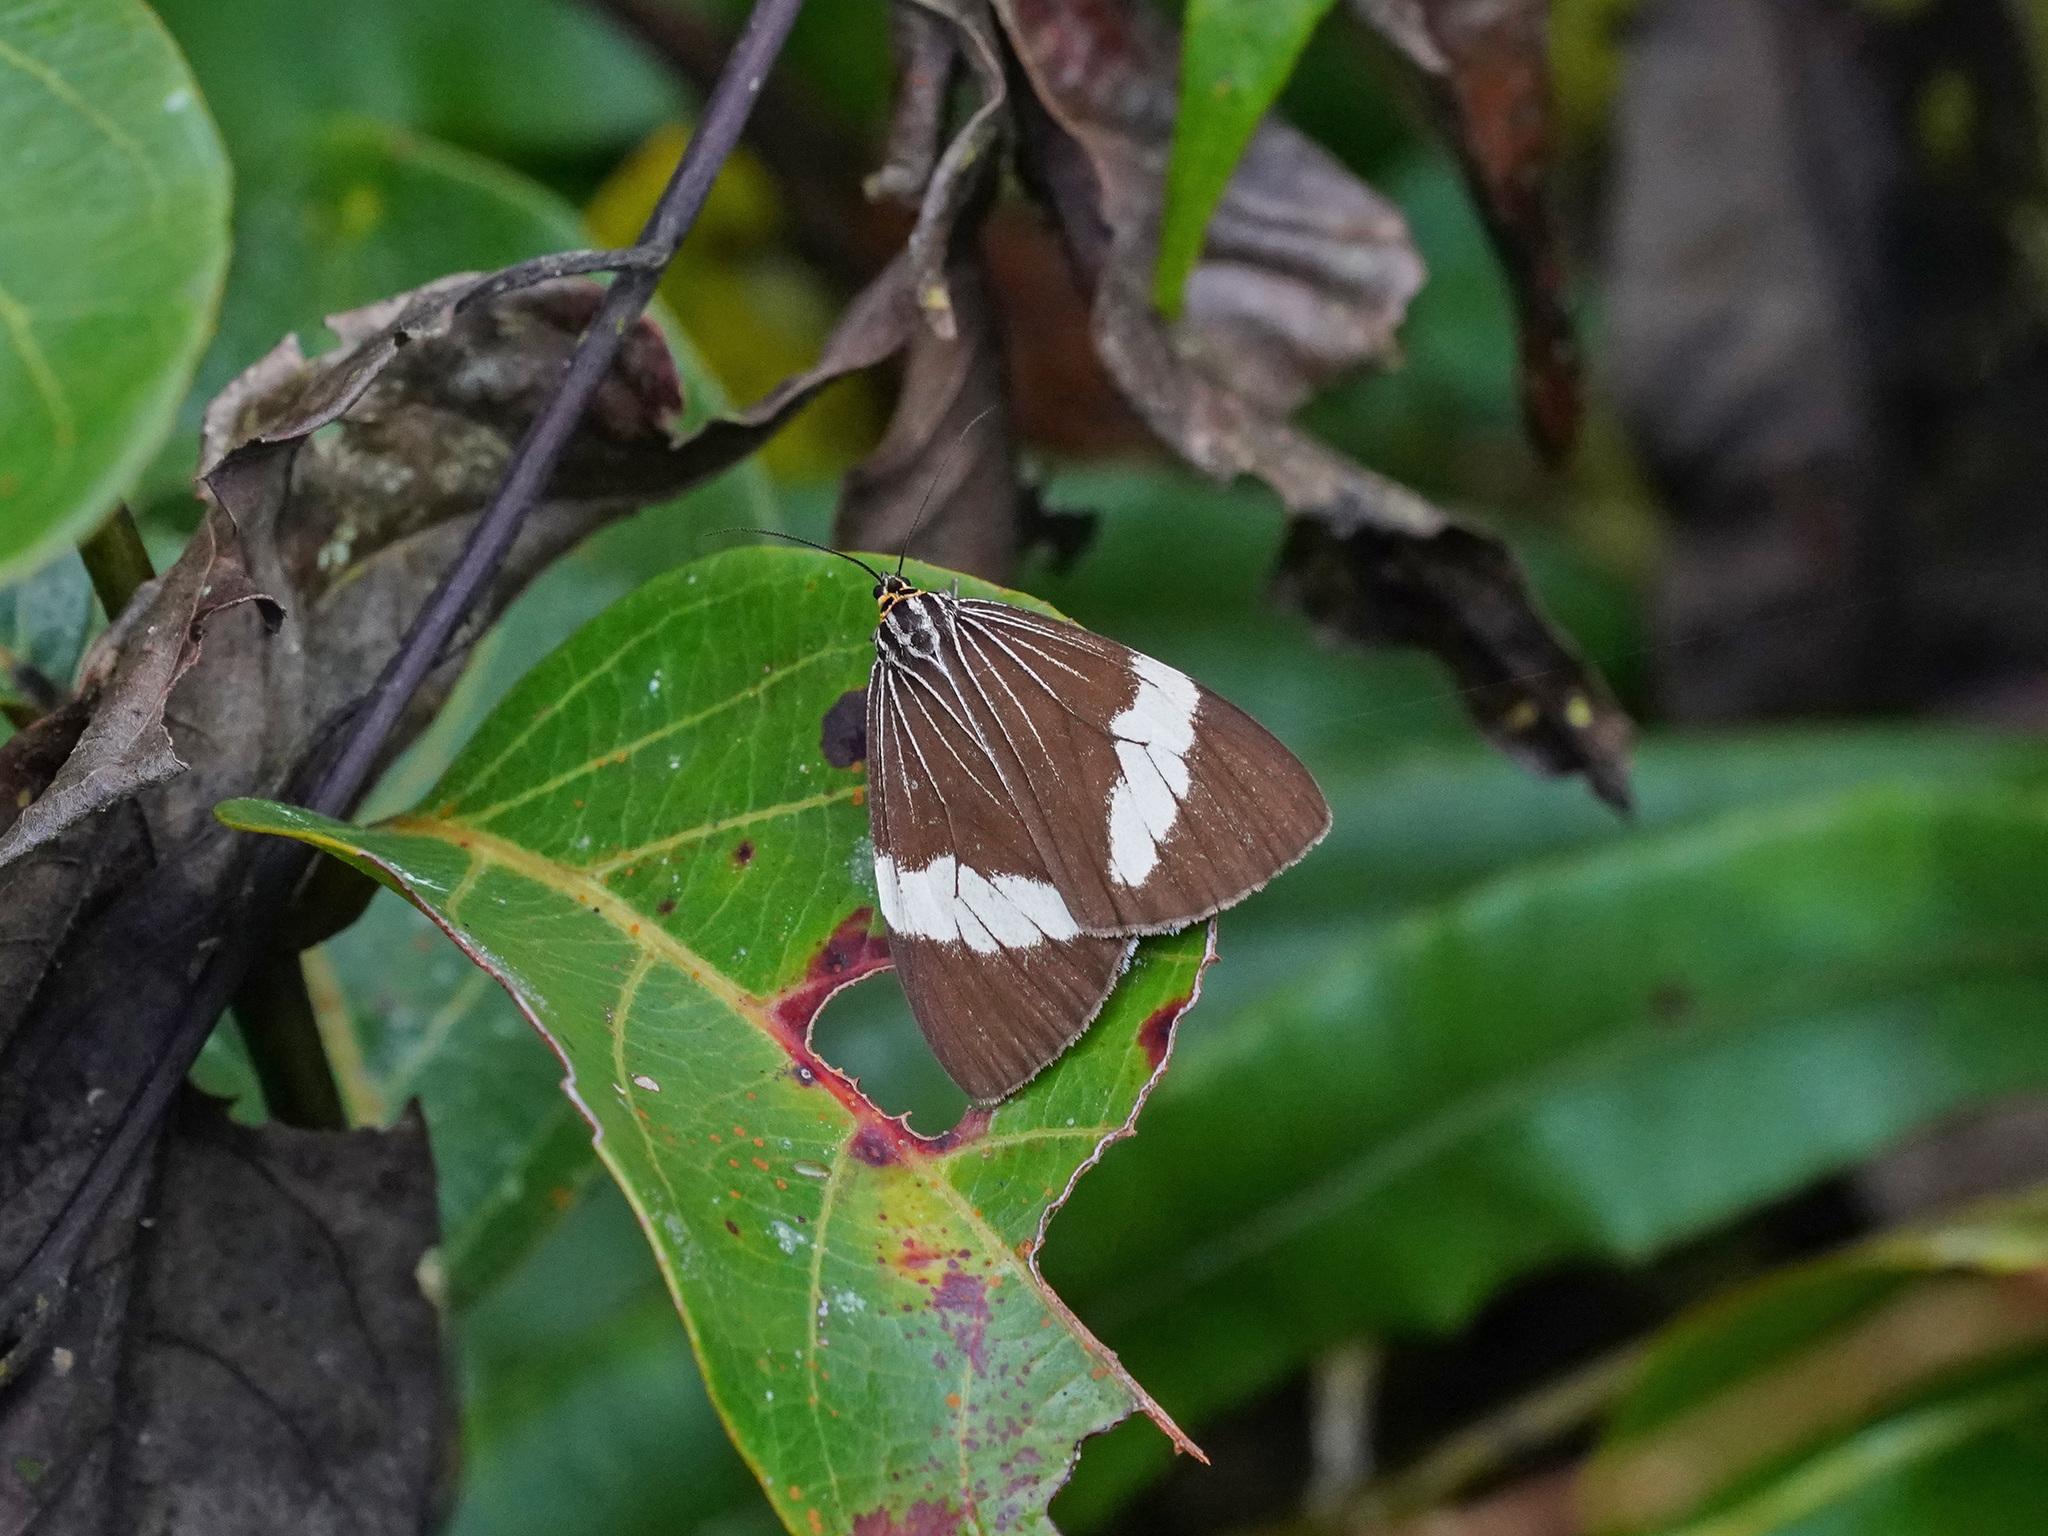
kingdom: Animalia
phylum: Arthropoda
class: Insecta
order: Lepidoptera
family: Erebidae
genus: Nyctemera
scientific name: Nyctemera baulus
